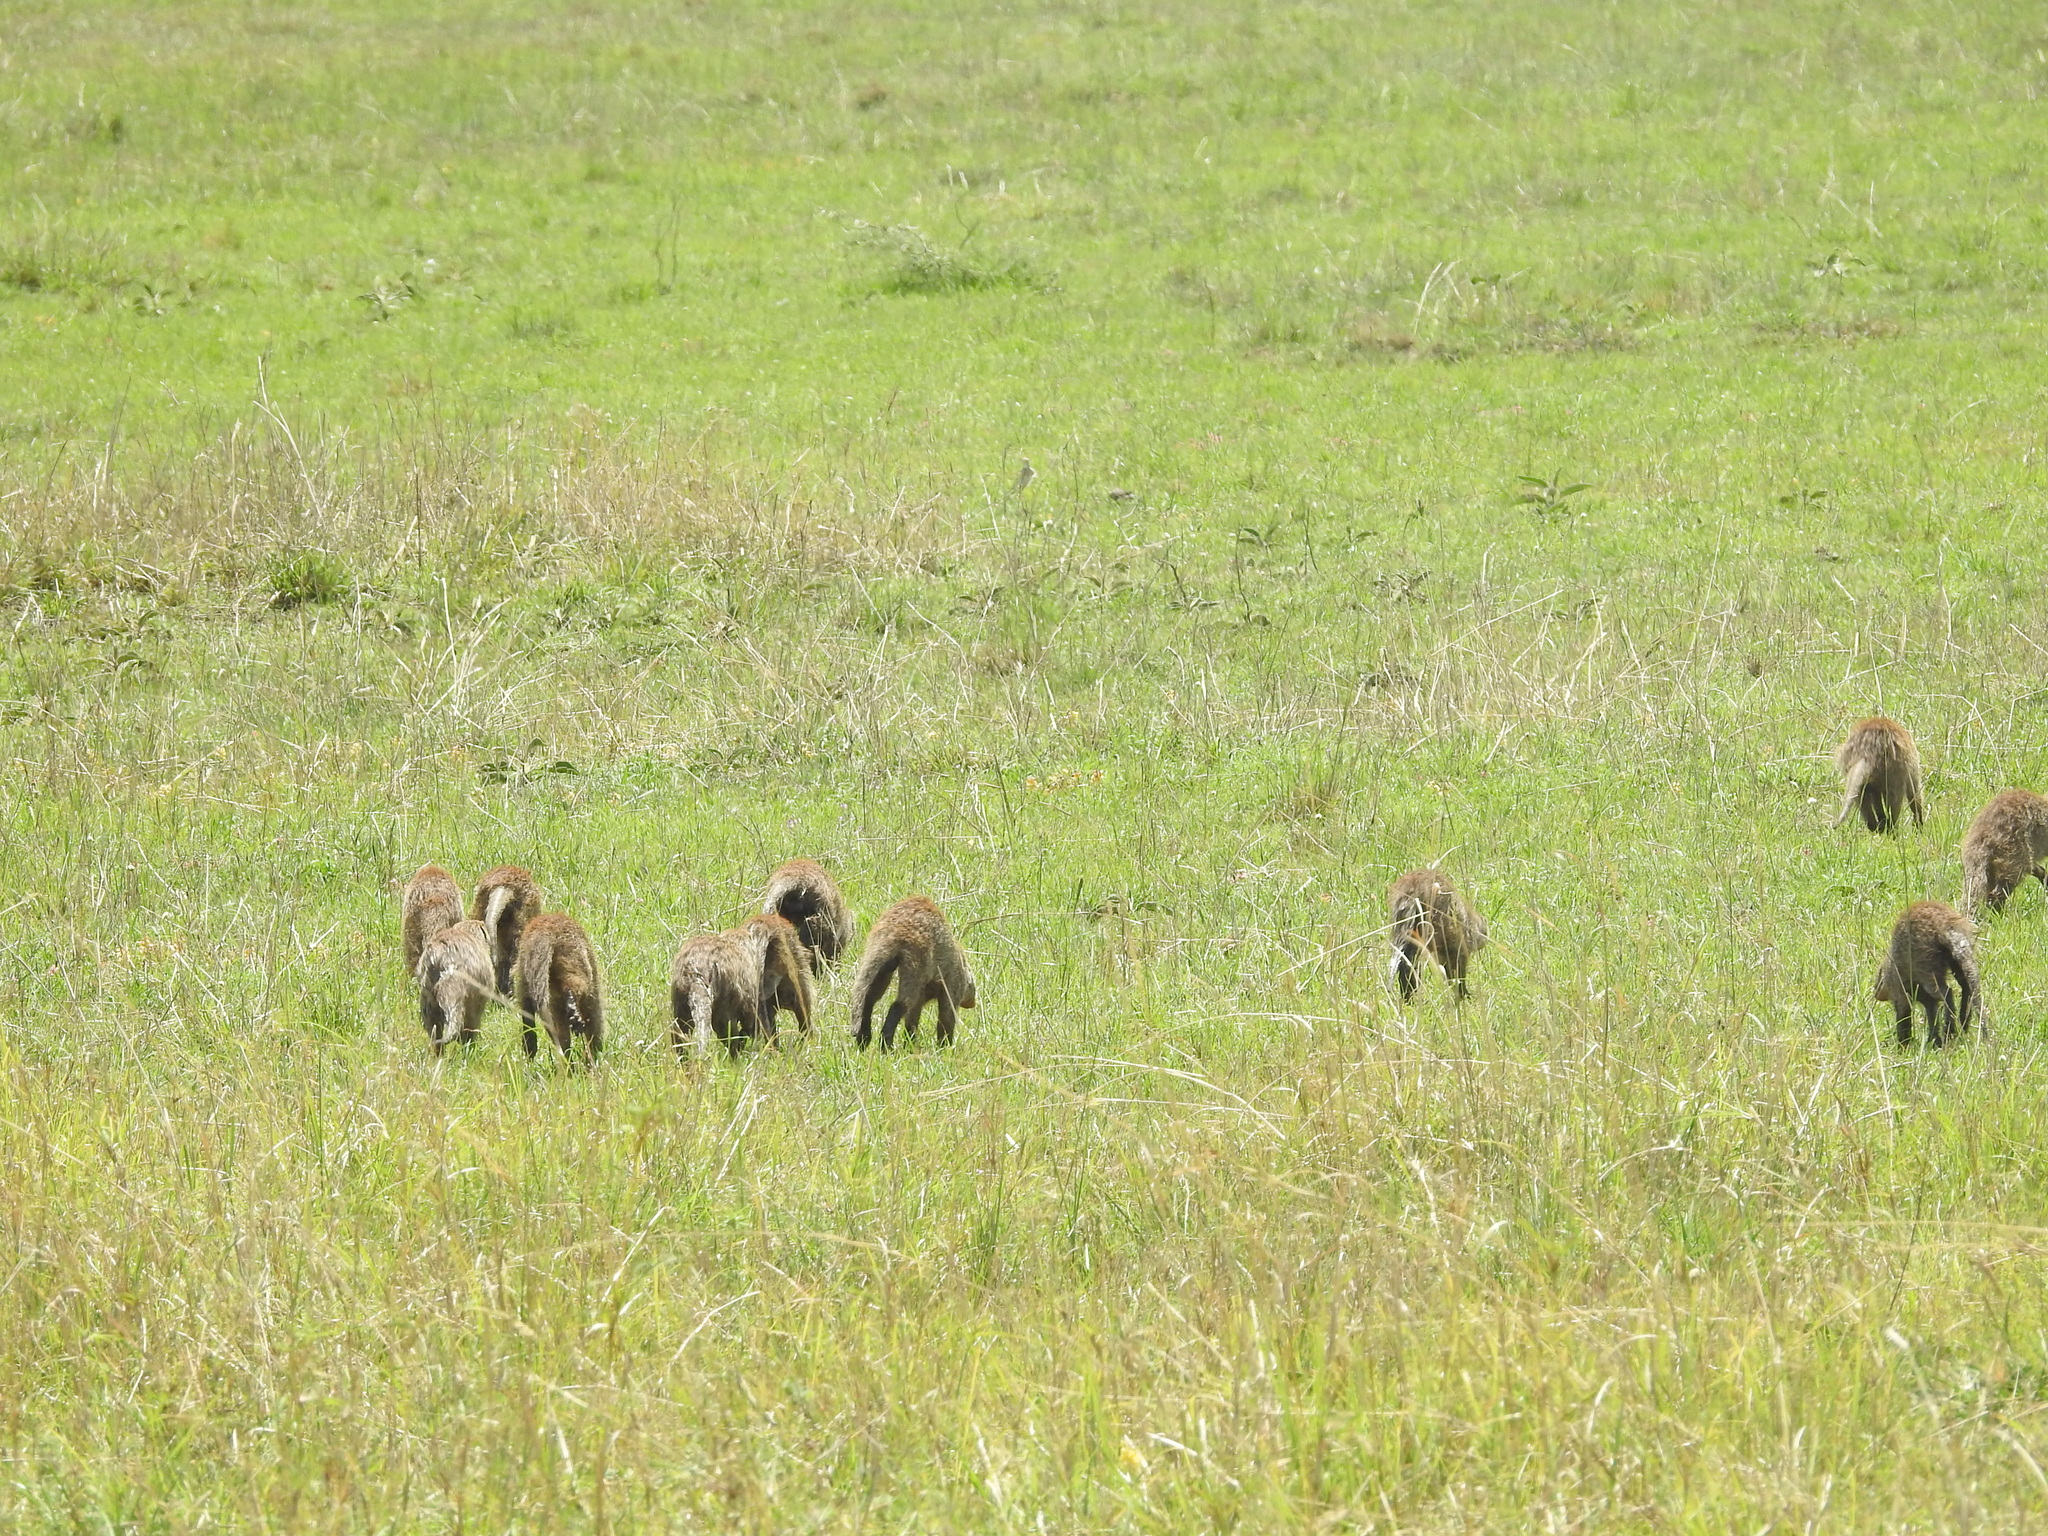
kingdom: Animalia
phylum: Chordata
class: Mammalia
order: Carnivora
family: Herpestidae
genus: Mungos
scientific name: Mungos mungo
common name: Banded mongoose
